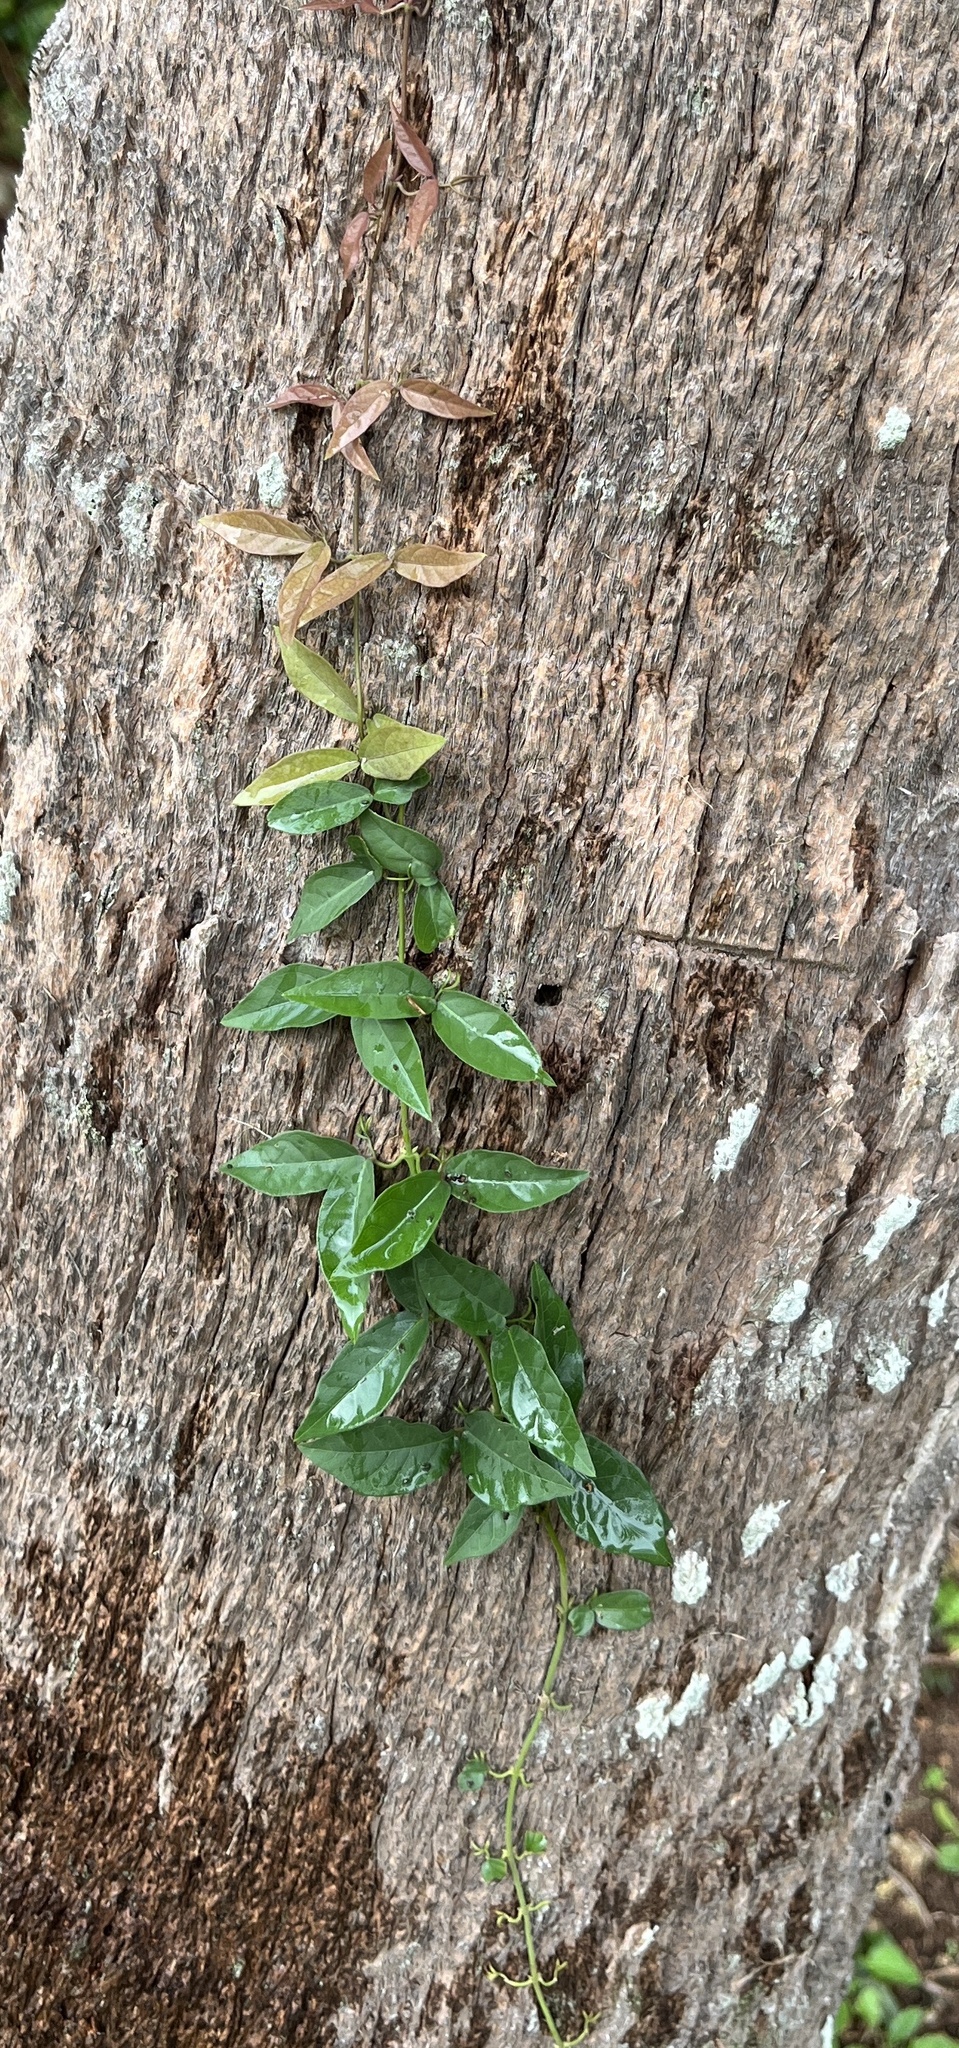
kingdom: Plantae
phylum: Tracheophyta
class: Magnoliopsida
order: Lamiales
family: Bignoniaceae
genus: Dolichandra
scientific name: Dolichandra unguis-cati
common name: Catclaw vine
